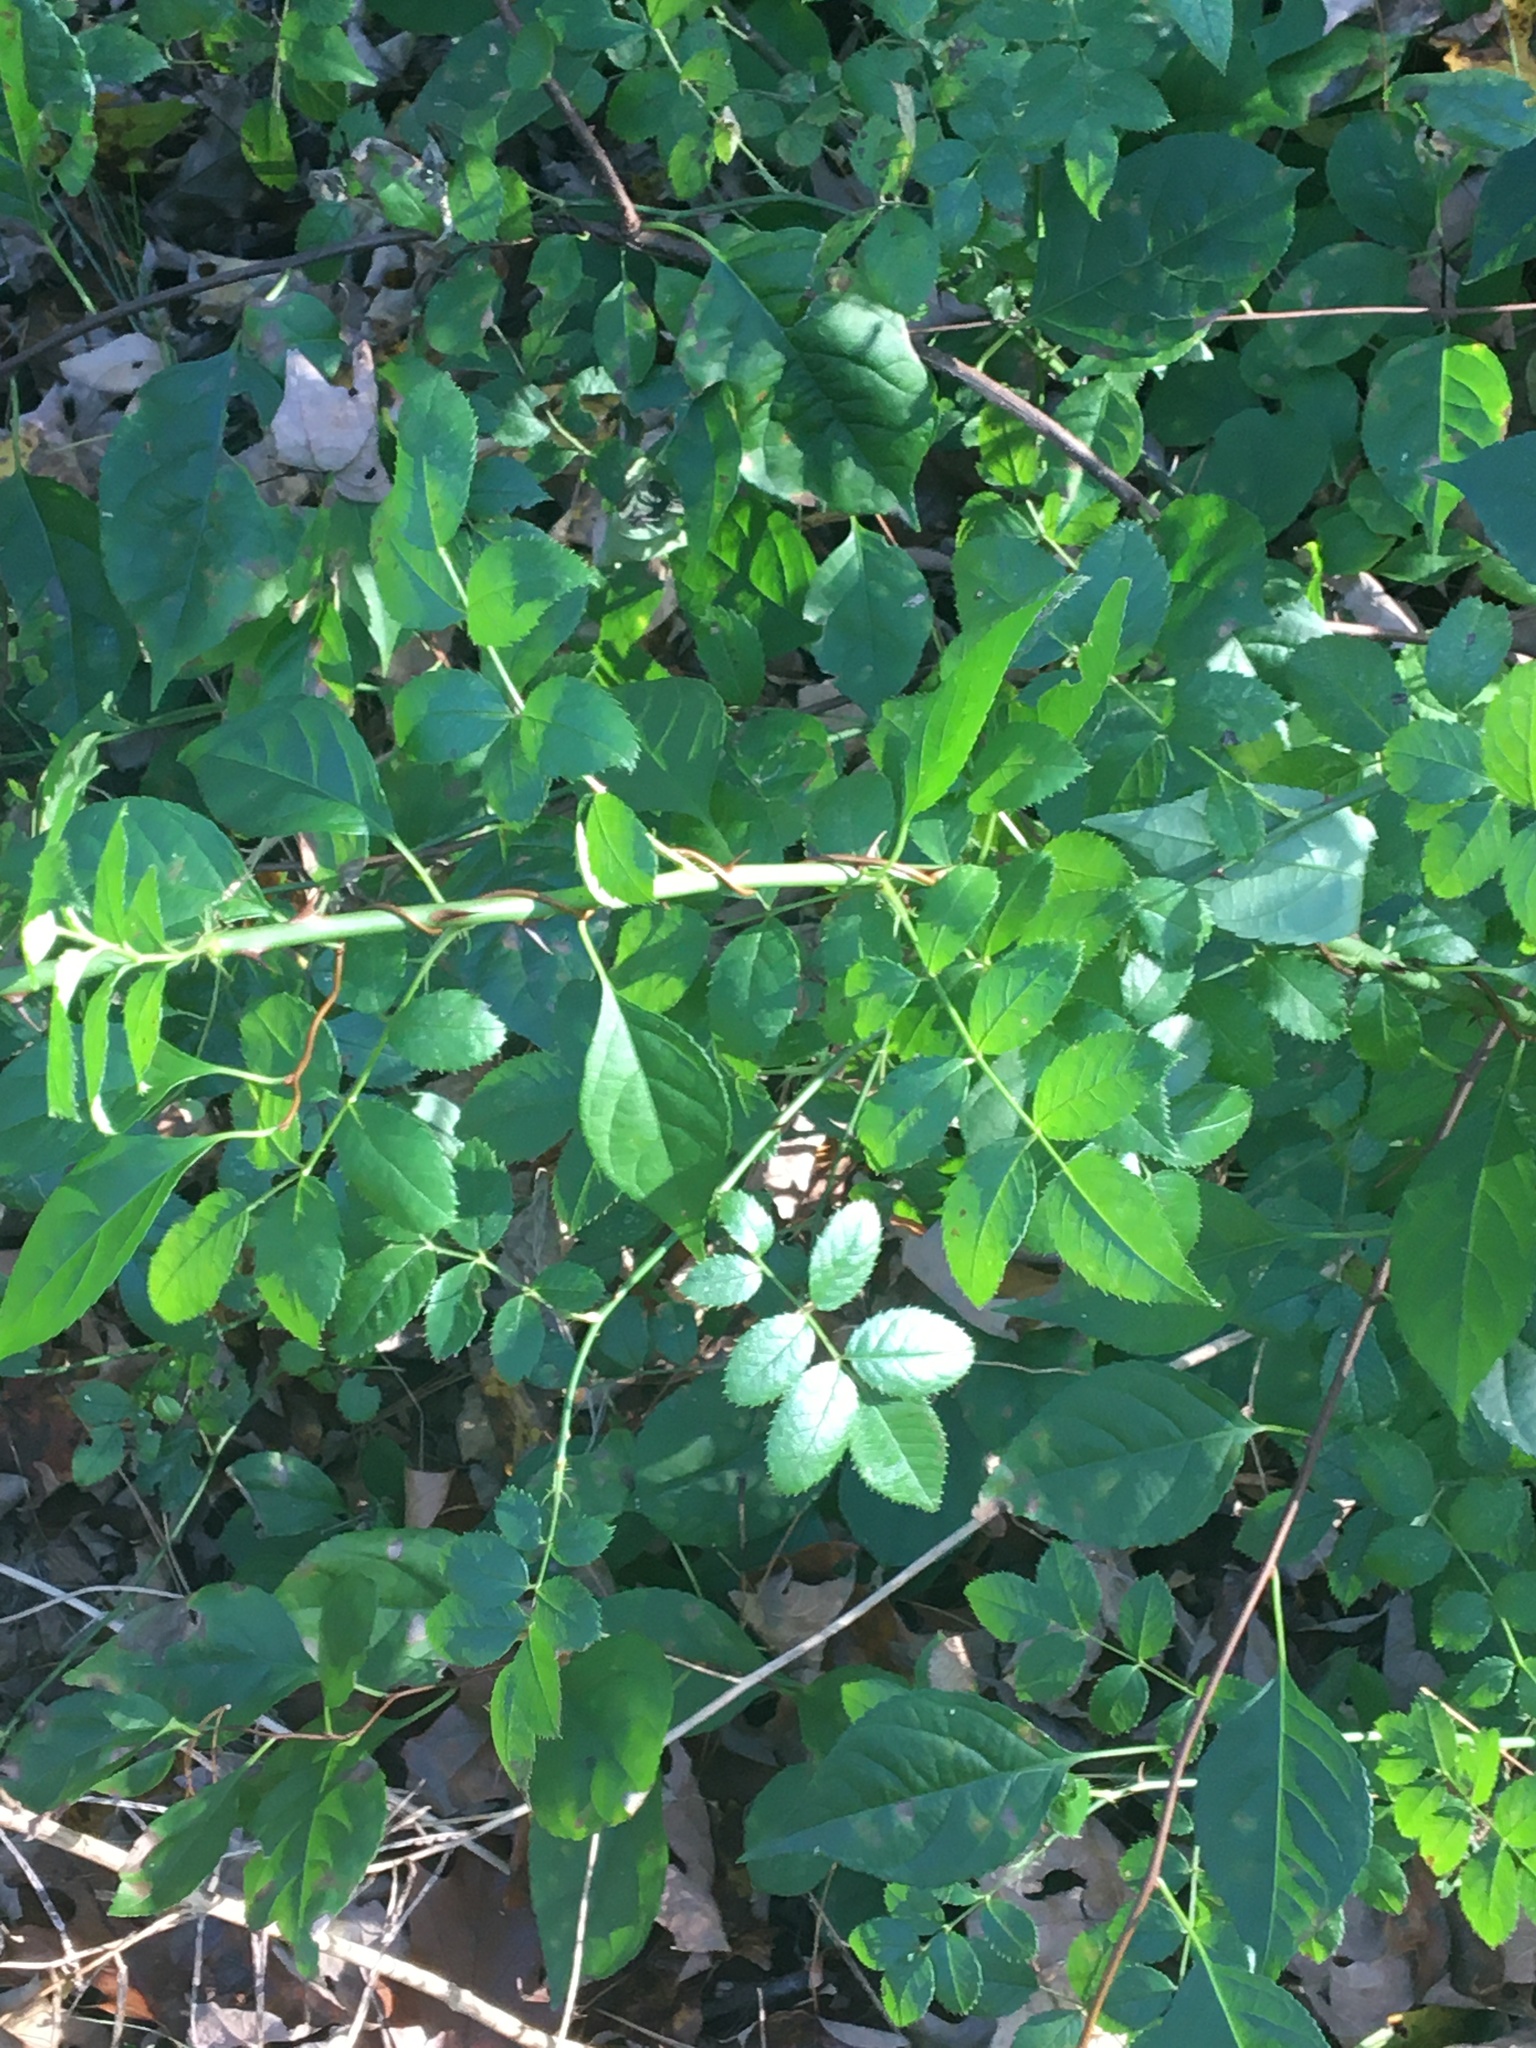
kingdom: Plantae
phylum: Tracheophyta
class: Magnoliopsida
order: Rosales
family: Rosaceae
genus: Rosa
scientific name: Rosa multiflora
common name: Multiflora rose
